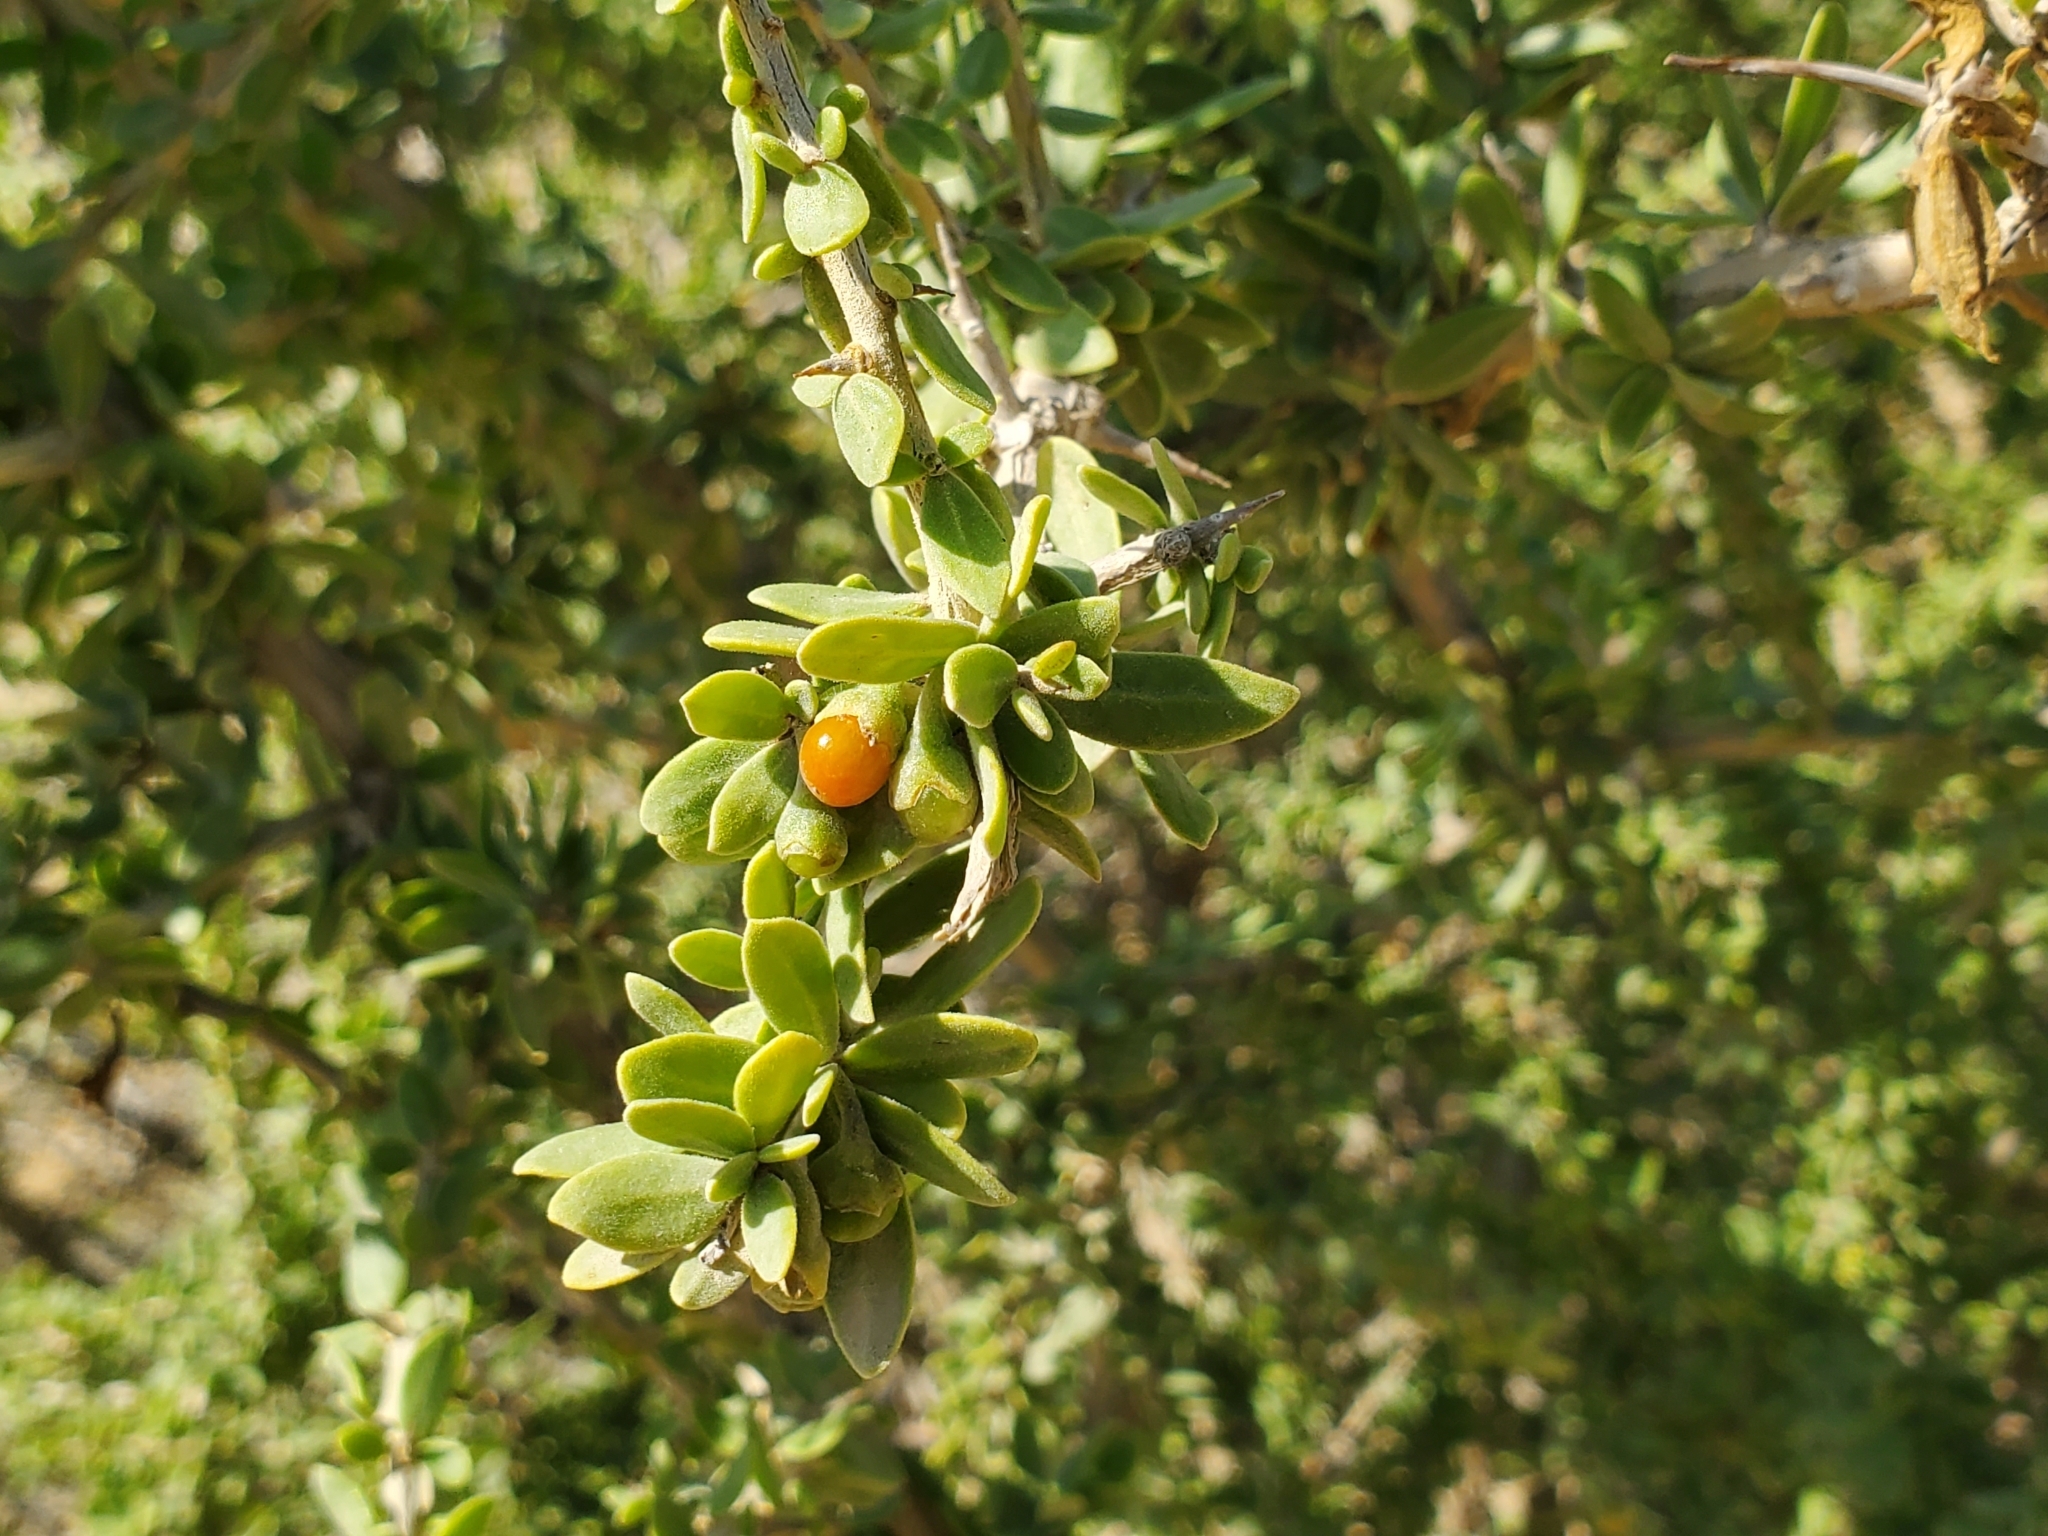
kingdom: Plantae
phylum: Tracheophyta
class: Magnoliopsida
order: Solanales
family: Solanaceae
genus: Lycium
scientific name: Lycium shawii
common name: Boxthorn
